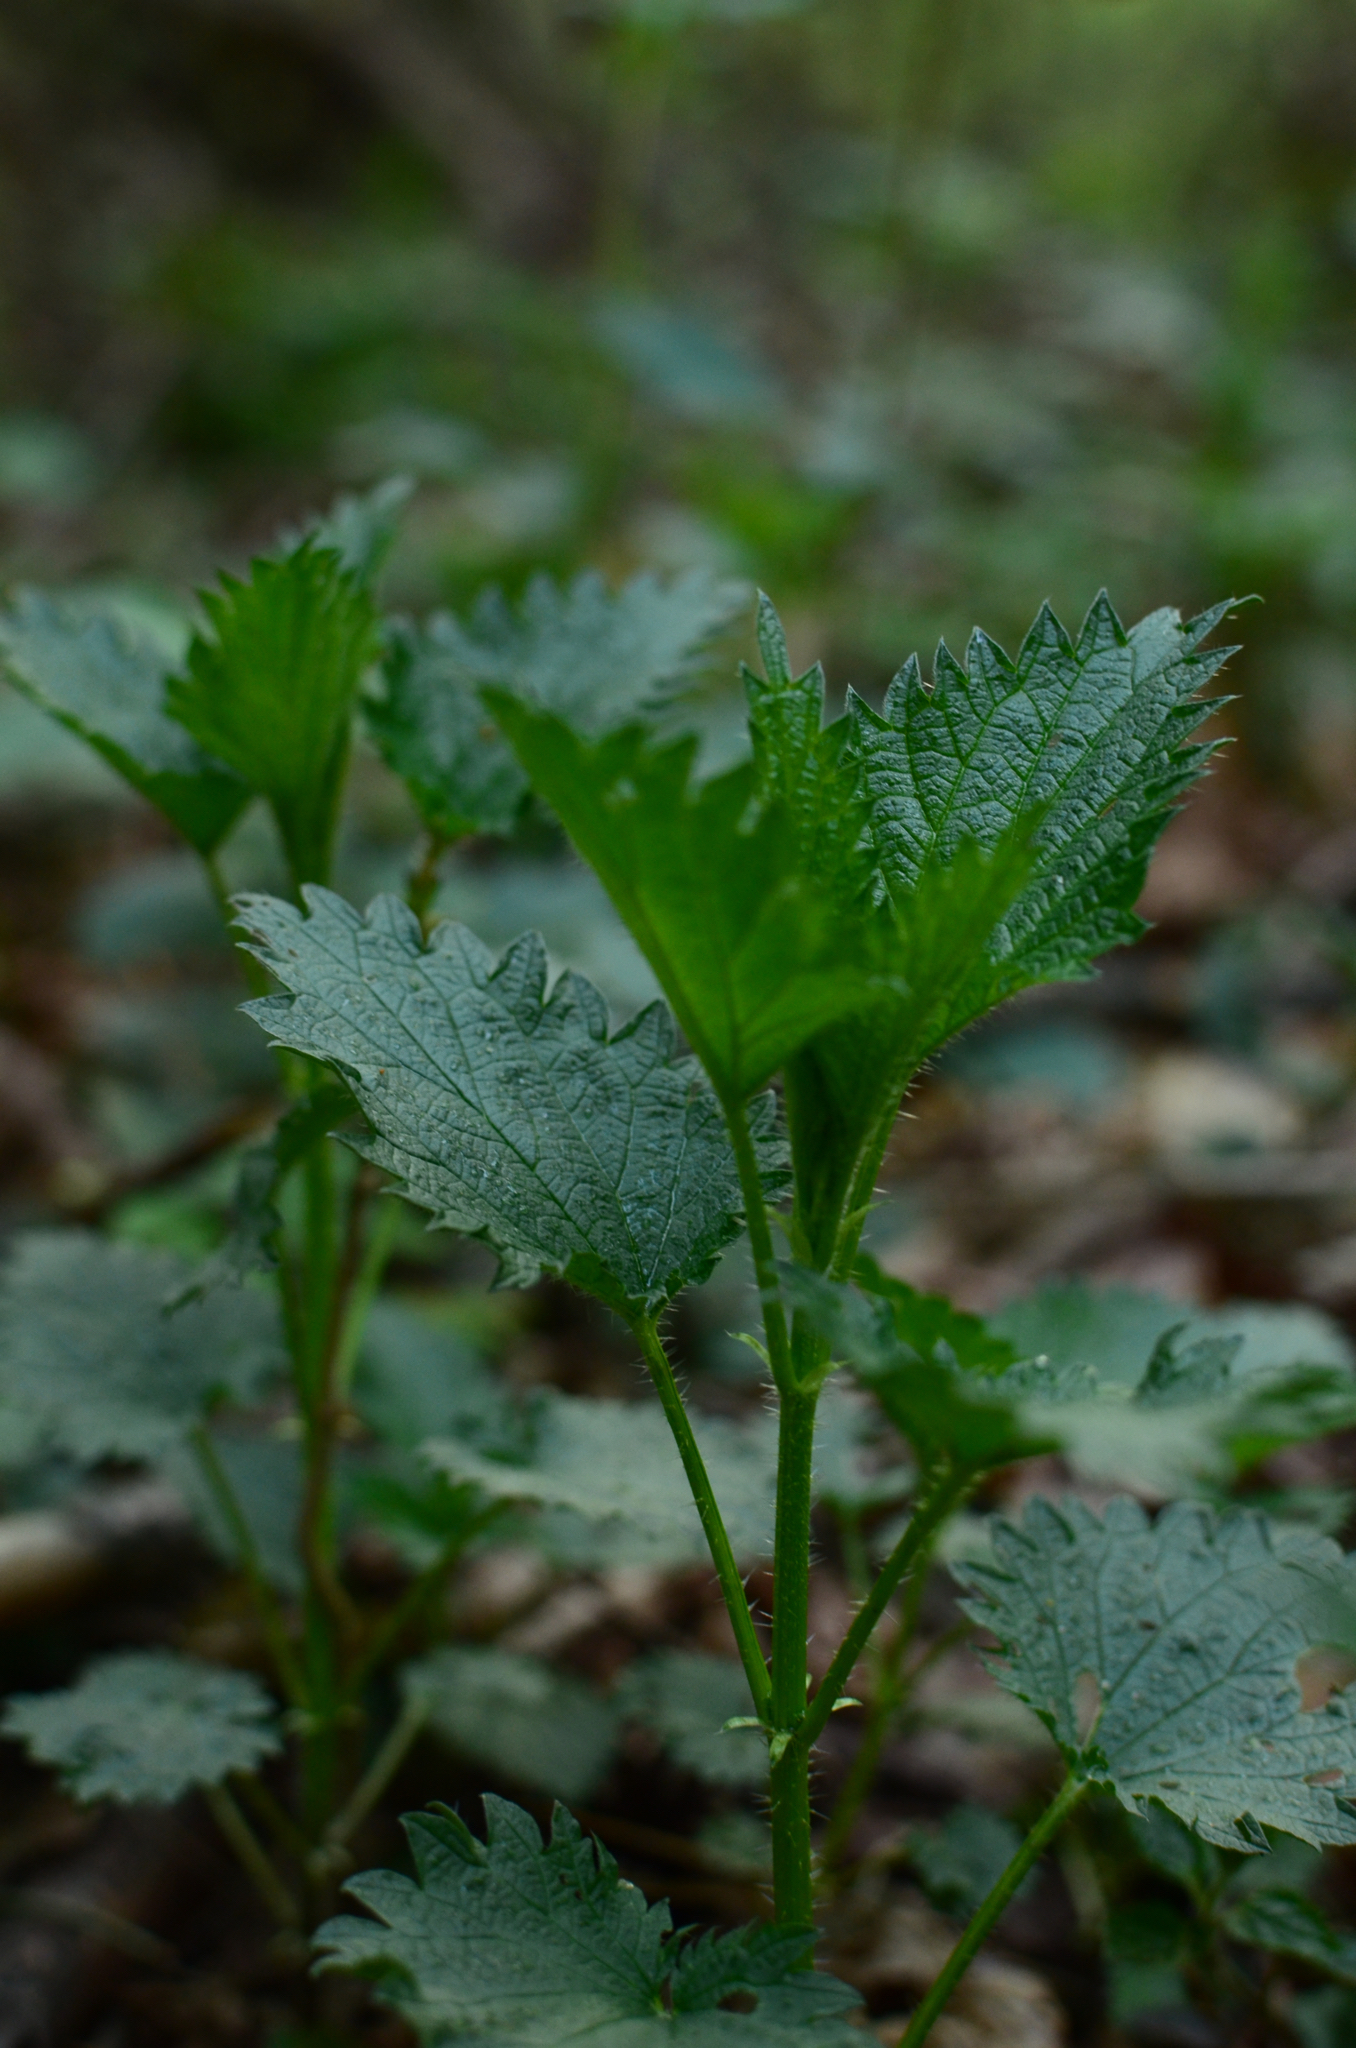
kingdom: Plantae
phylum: Tracheophyta
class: Magnoliopsida
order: Rosales
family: Urticaceae
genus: Urtica
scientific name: Urtica dioica
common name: Common nettle
